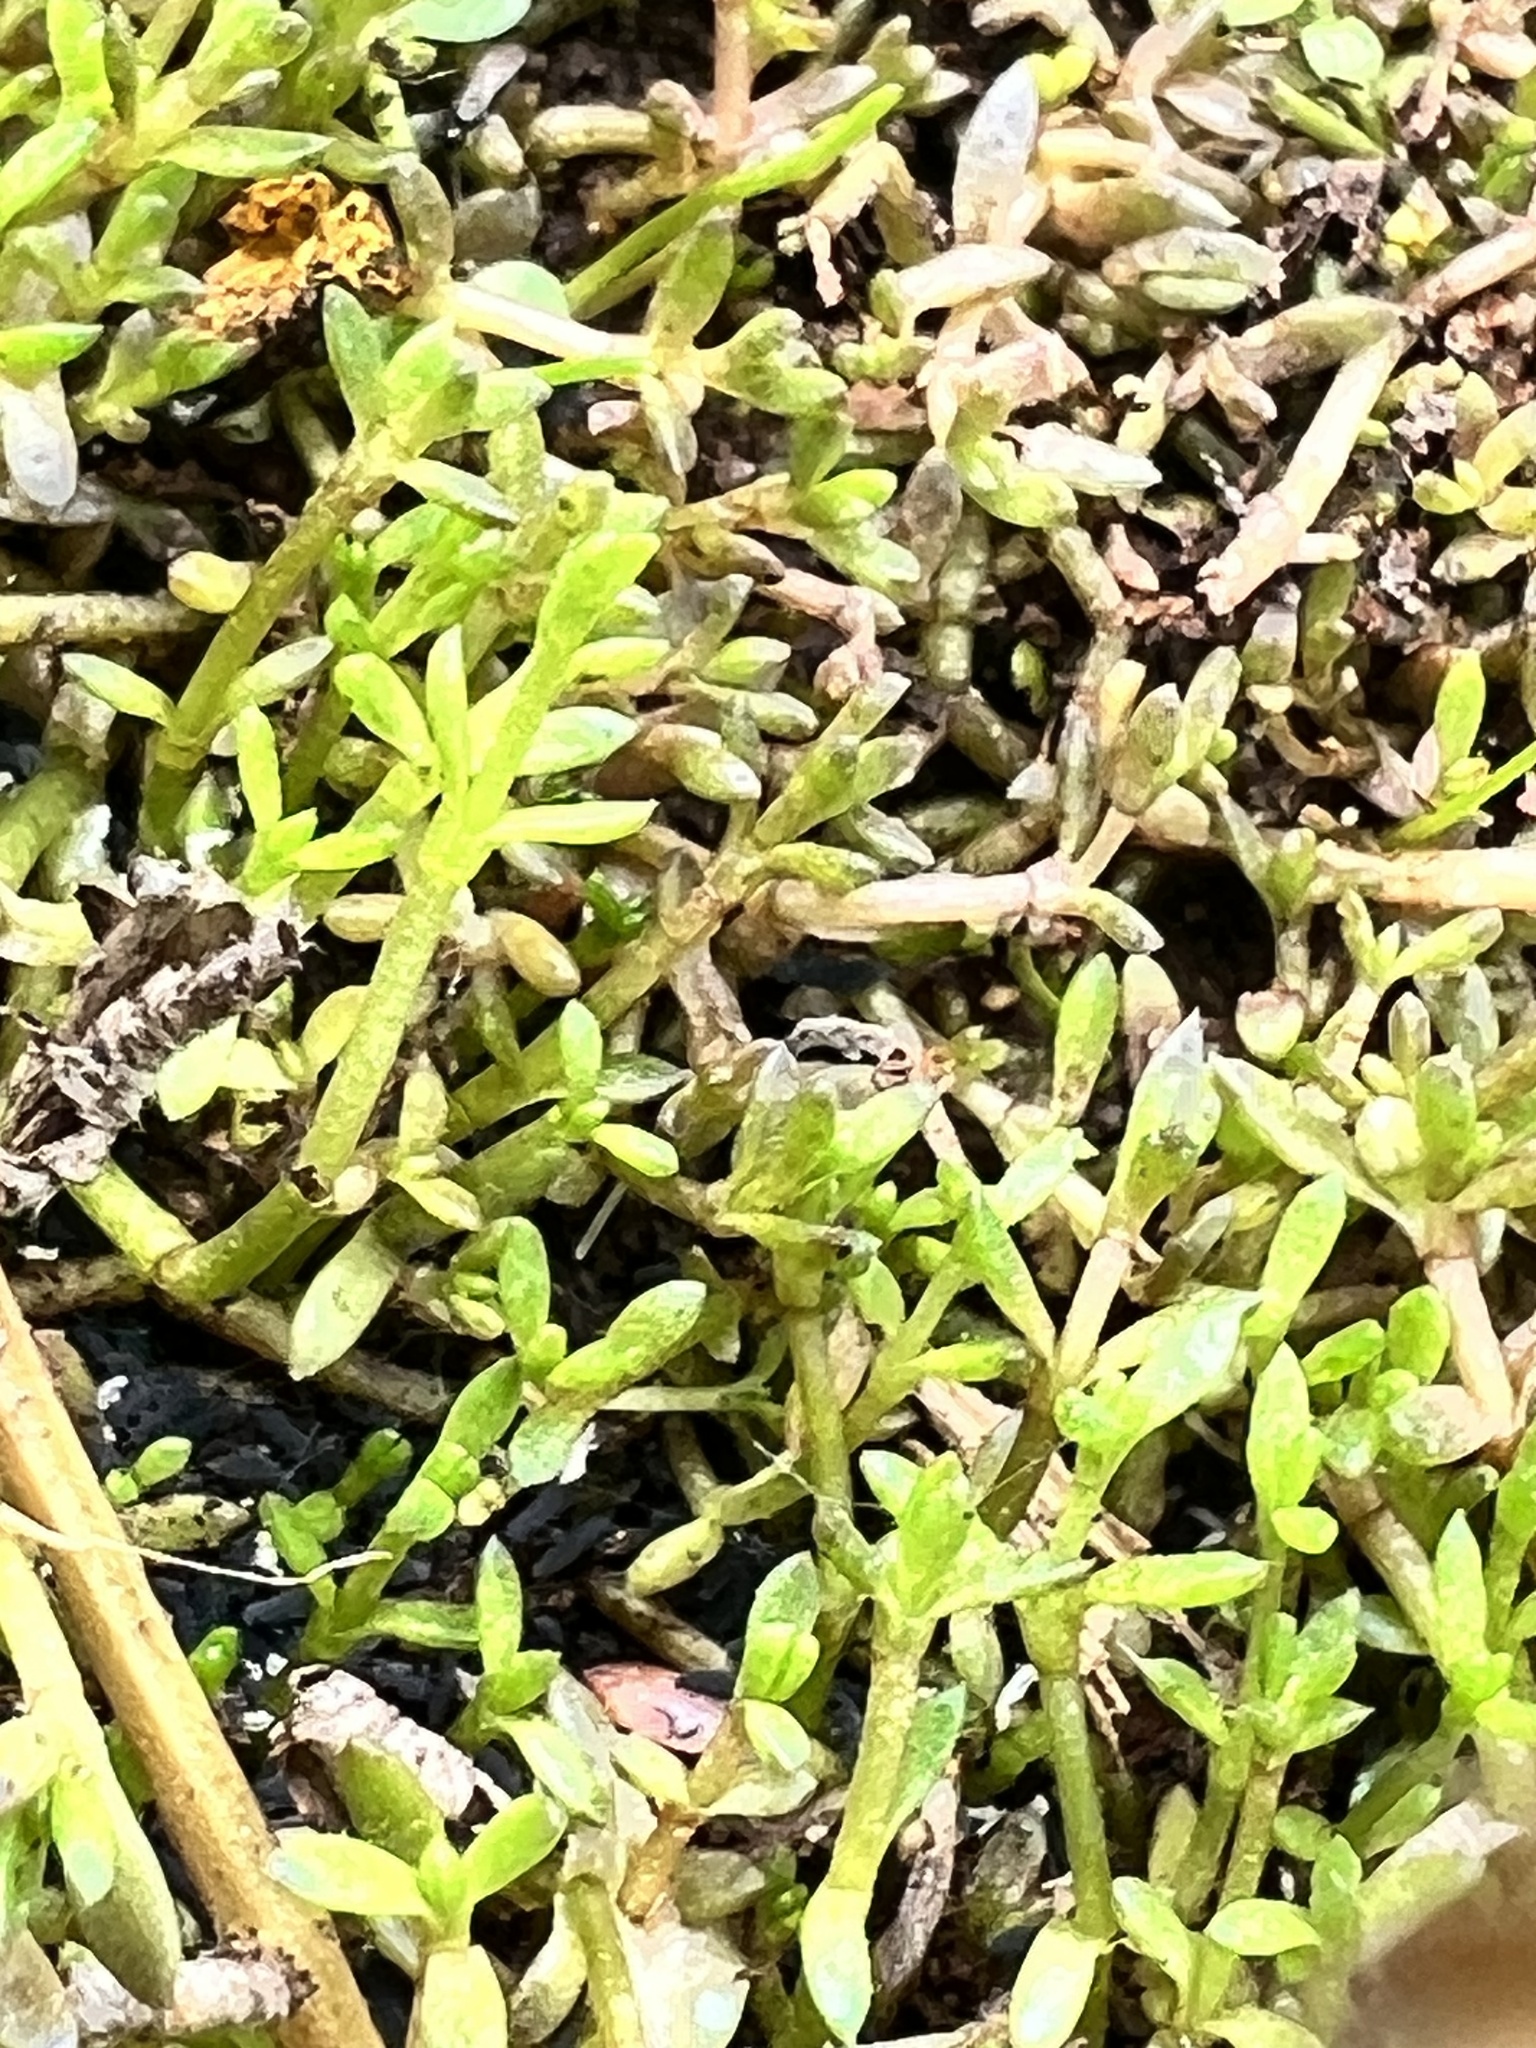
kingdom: Plantae
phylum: Tracheophyta
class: Magnoliopsida
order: Saxifragales
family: Crassulaceae
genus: Crassula
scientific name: Crassula helmsii
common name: New zealand pigmyweed
